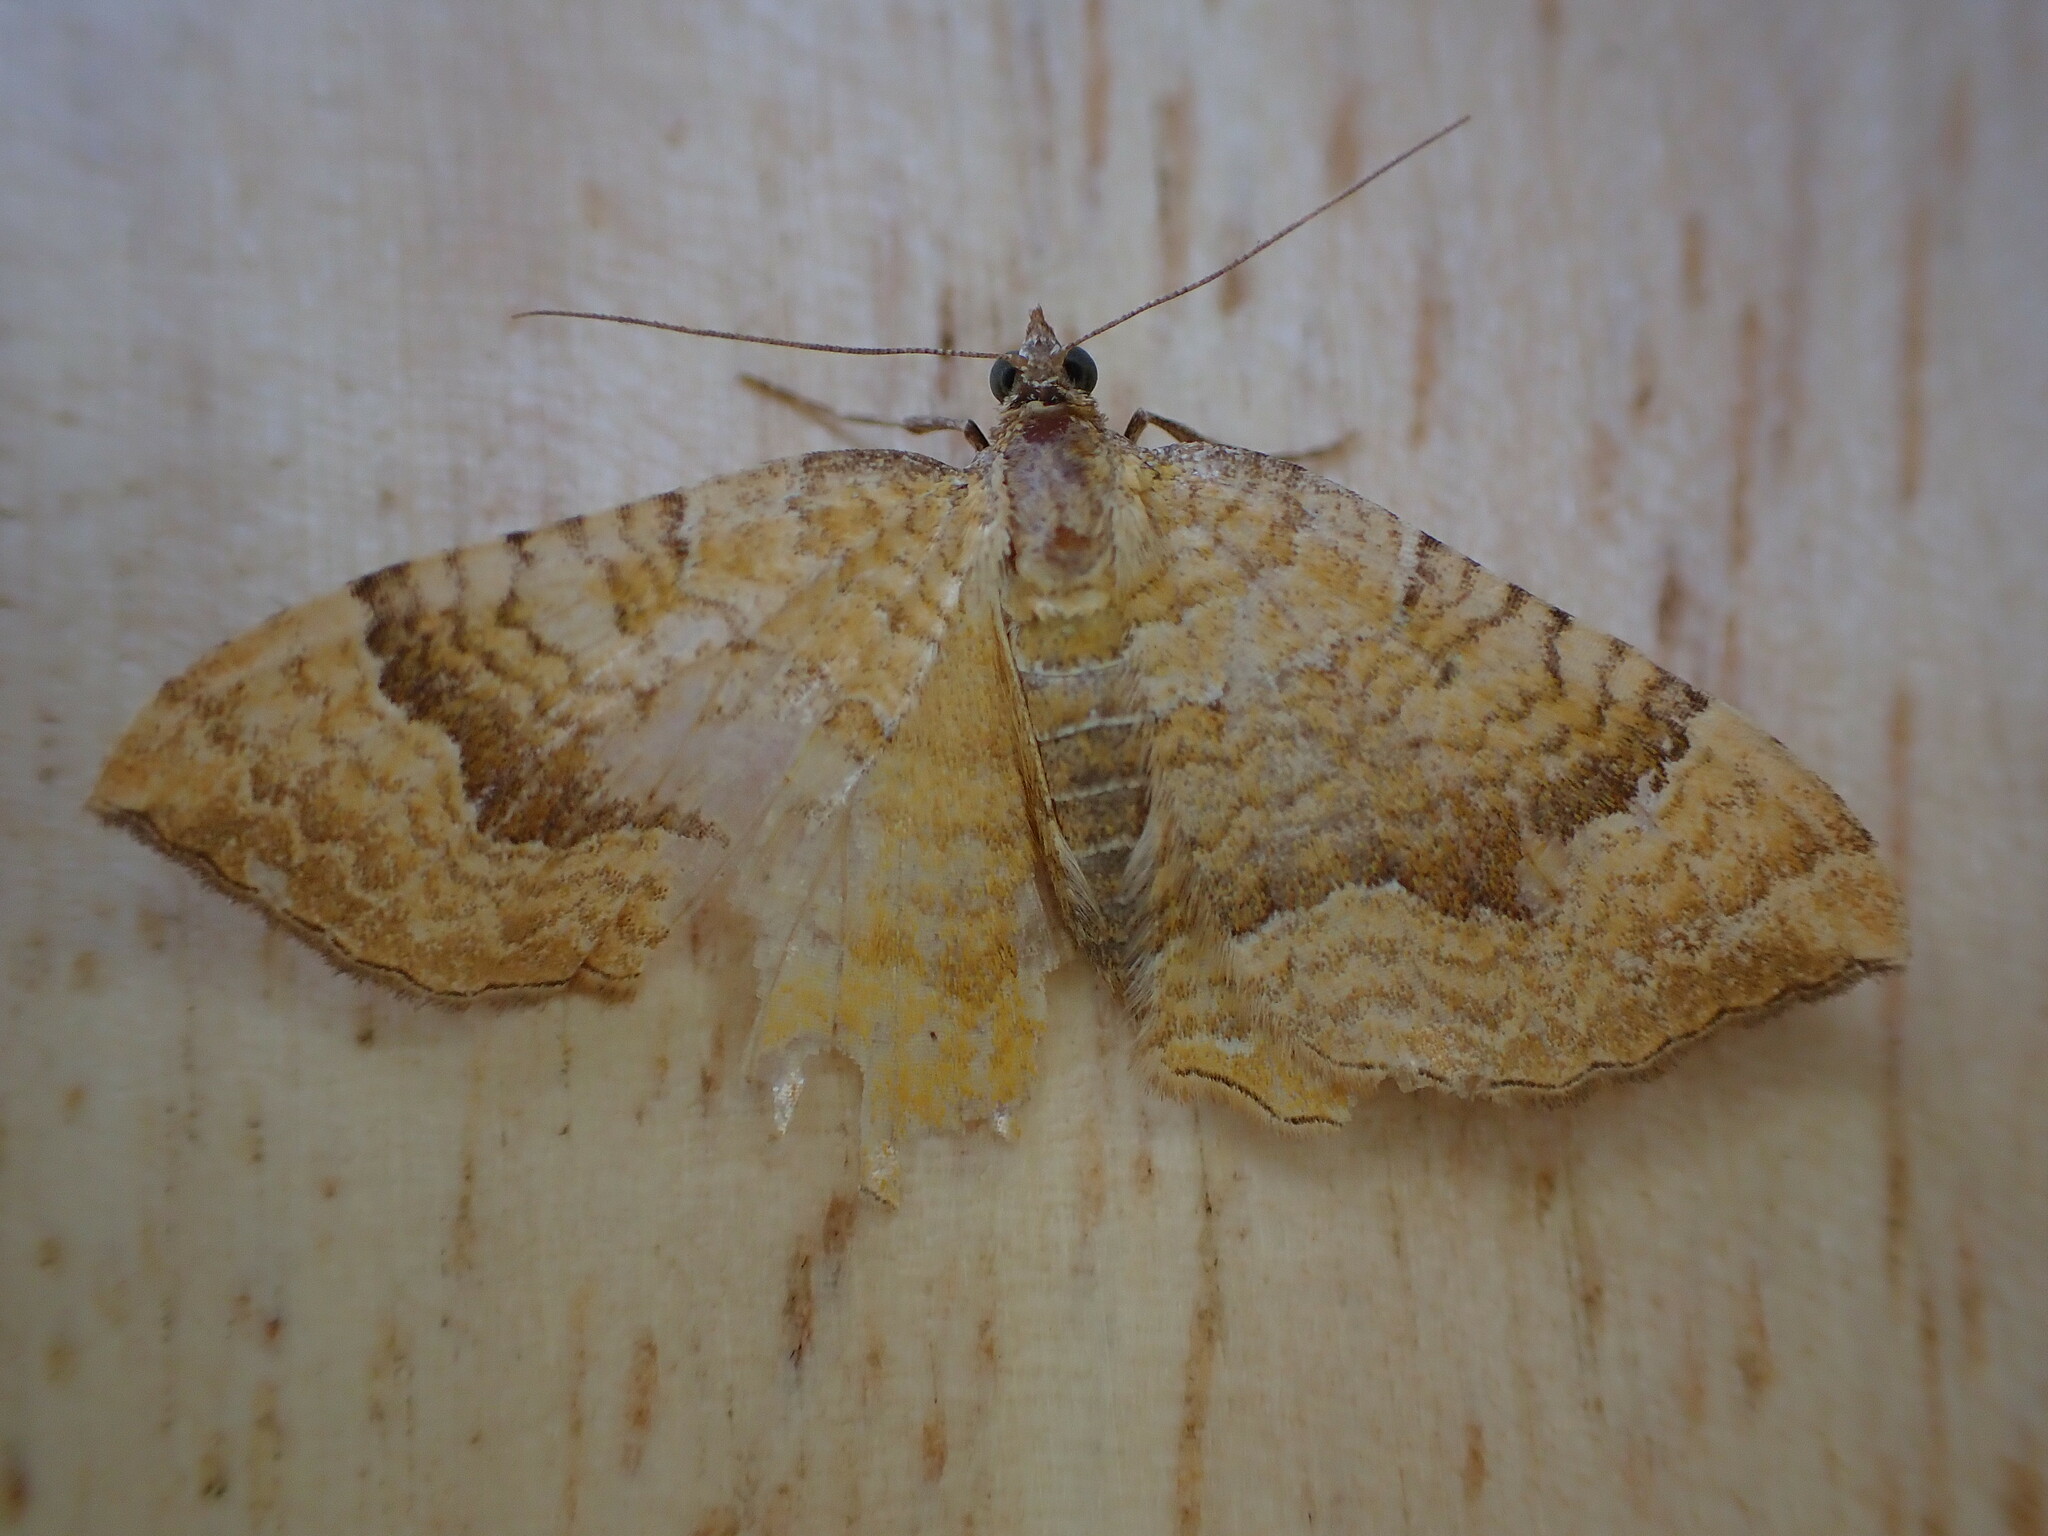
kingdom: Animalia
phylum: Arthropoda
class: Insecta
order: Lepidoptera
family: Geometridae
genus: Camptogramma
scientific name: Camptogramma bilineata
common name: Yellow shell
